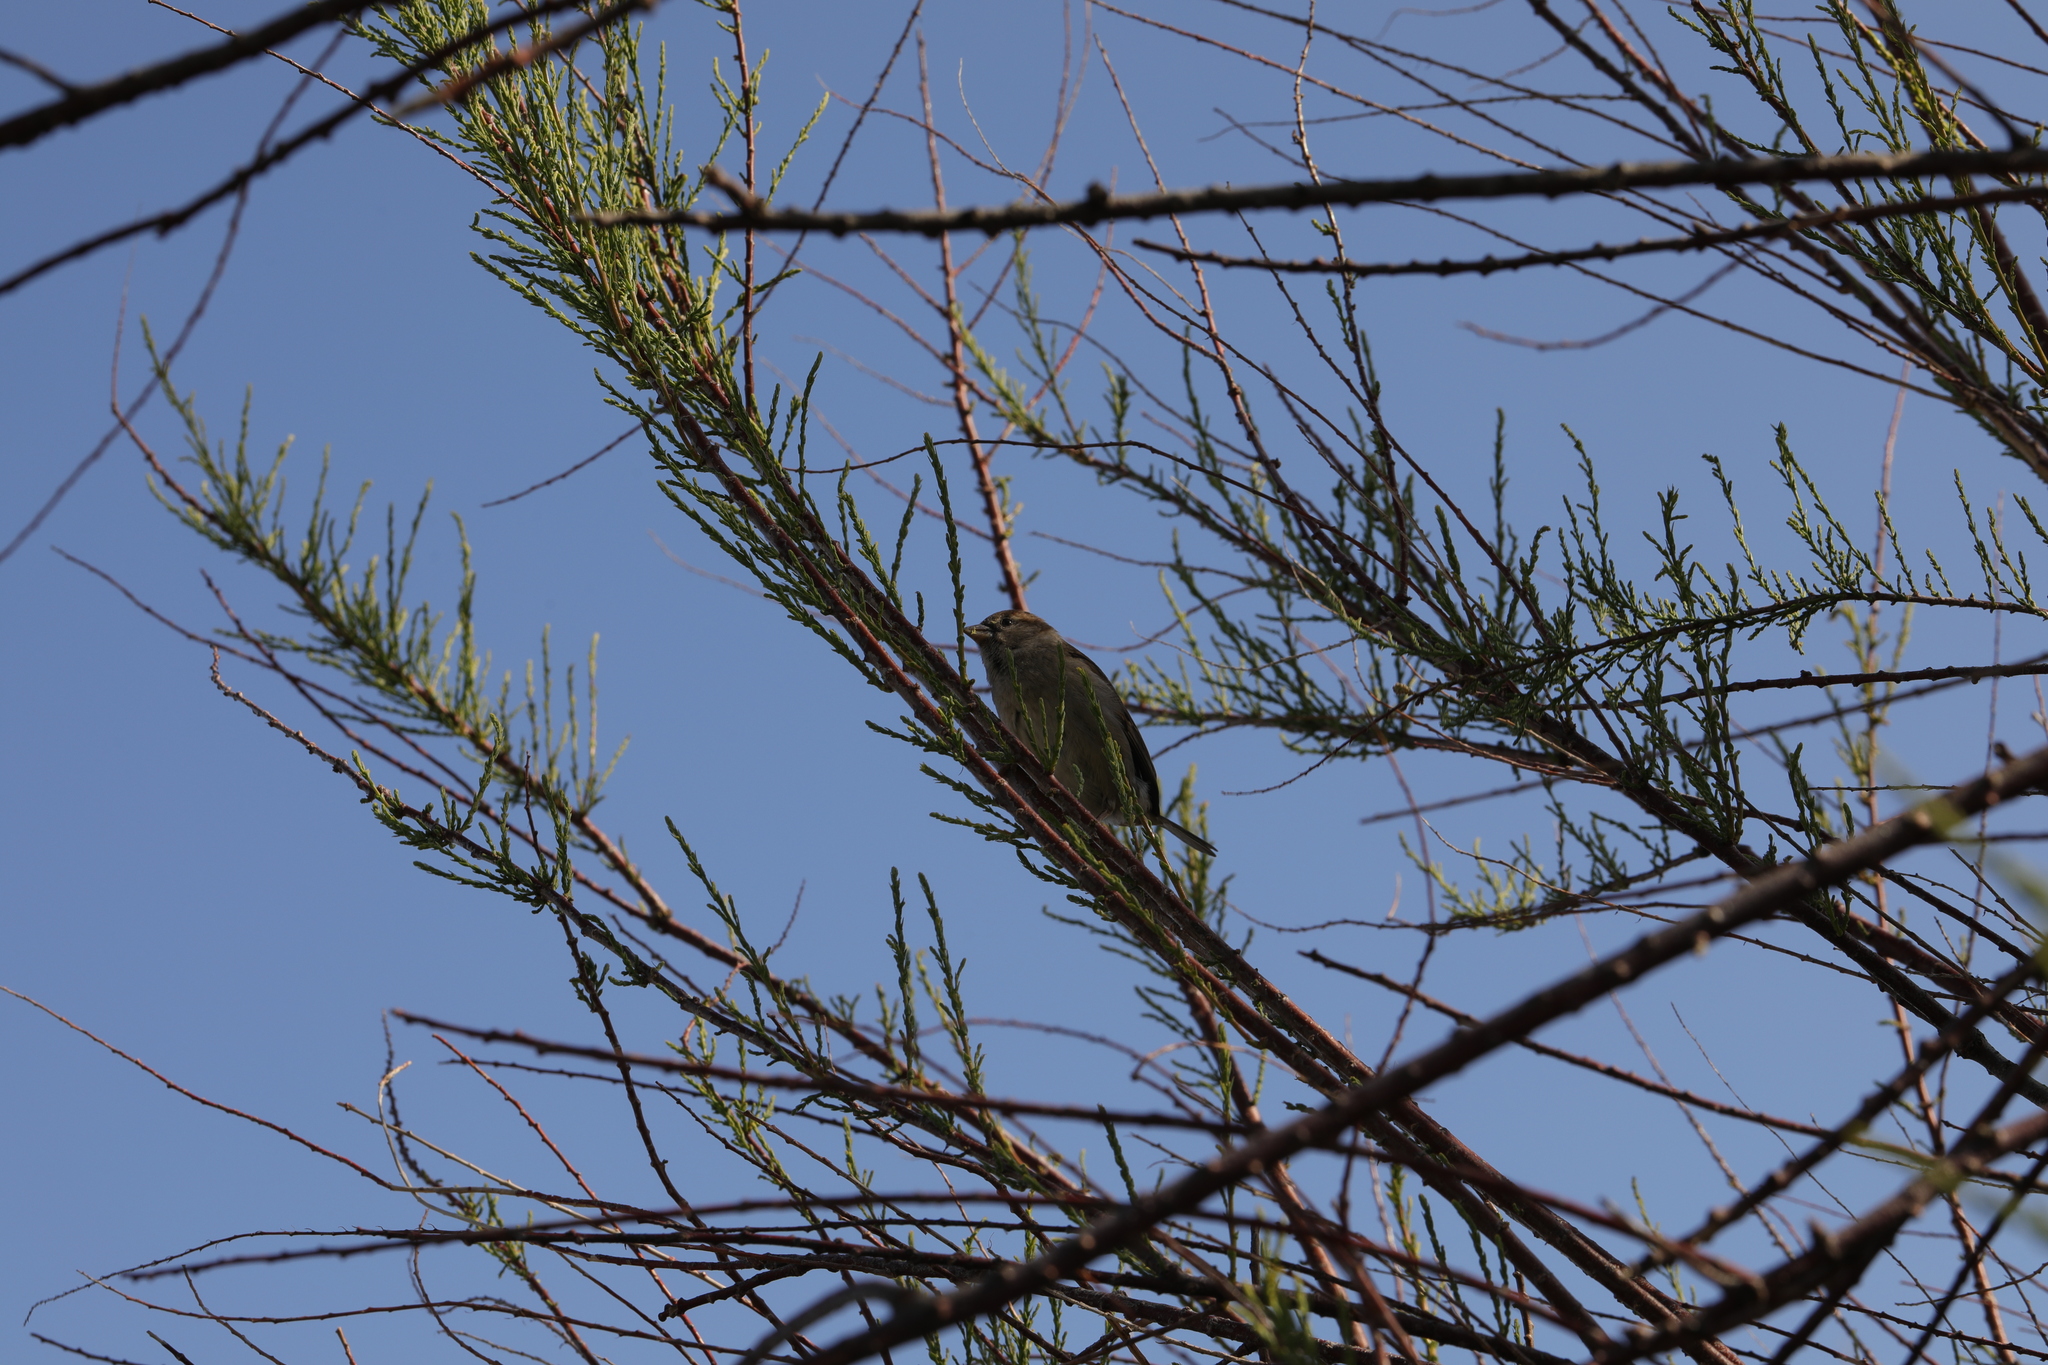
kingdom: Animalia
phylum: Chordata
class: Aves
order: Passeriformes
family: Passeridae
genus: Passer
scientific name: Passer domesticus
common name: House sparrow
